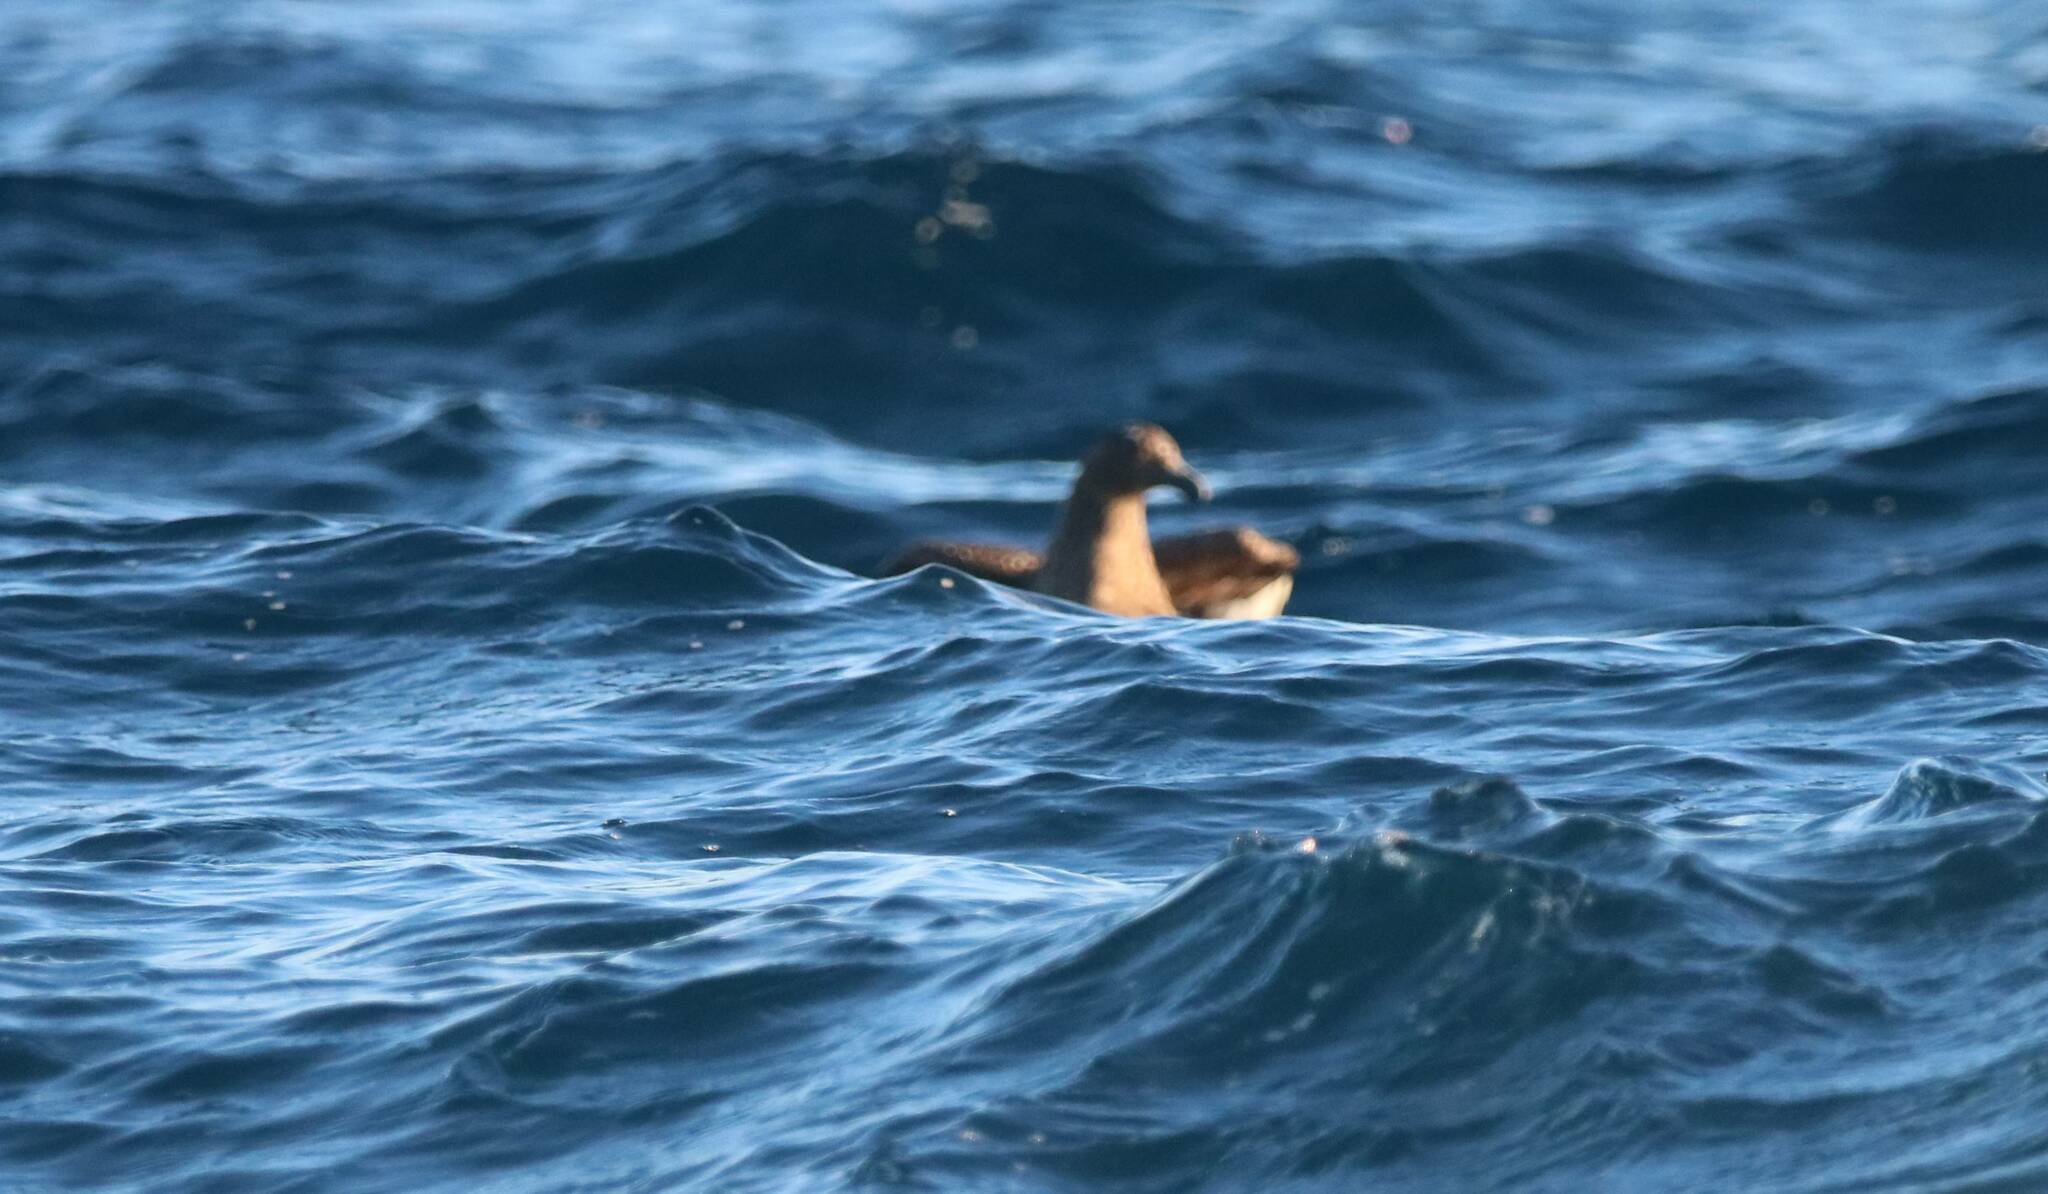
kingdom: Animalia
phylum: Chordata
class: Aves
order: Charadriiformes
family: Stercorariidae
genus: Stercorarius
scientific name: Stercorarius skua
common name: Great skua
